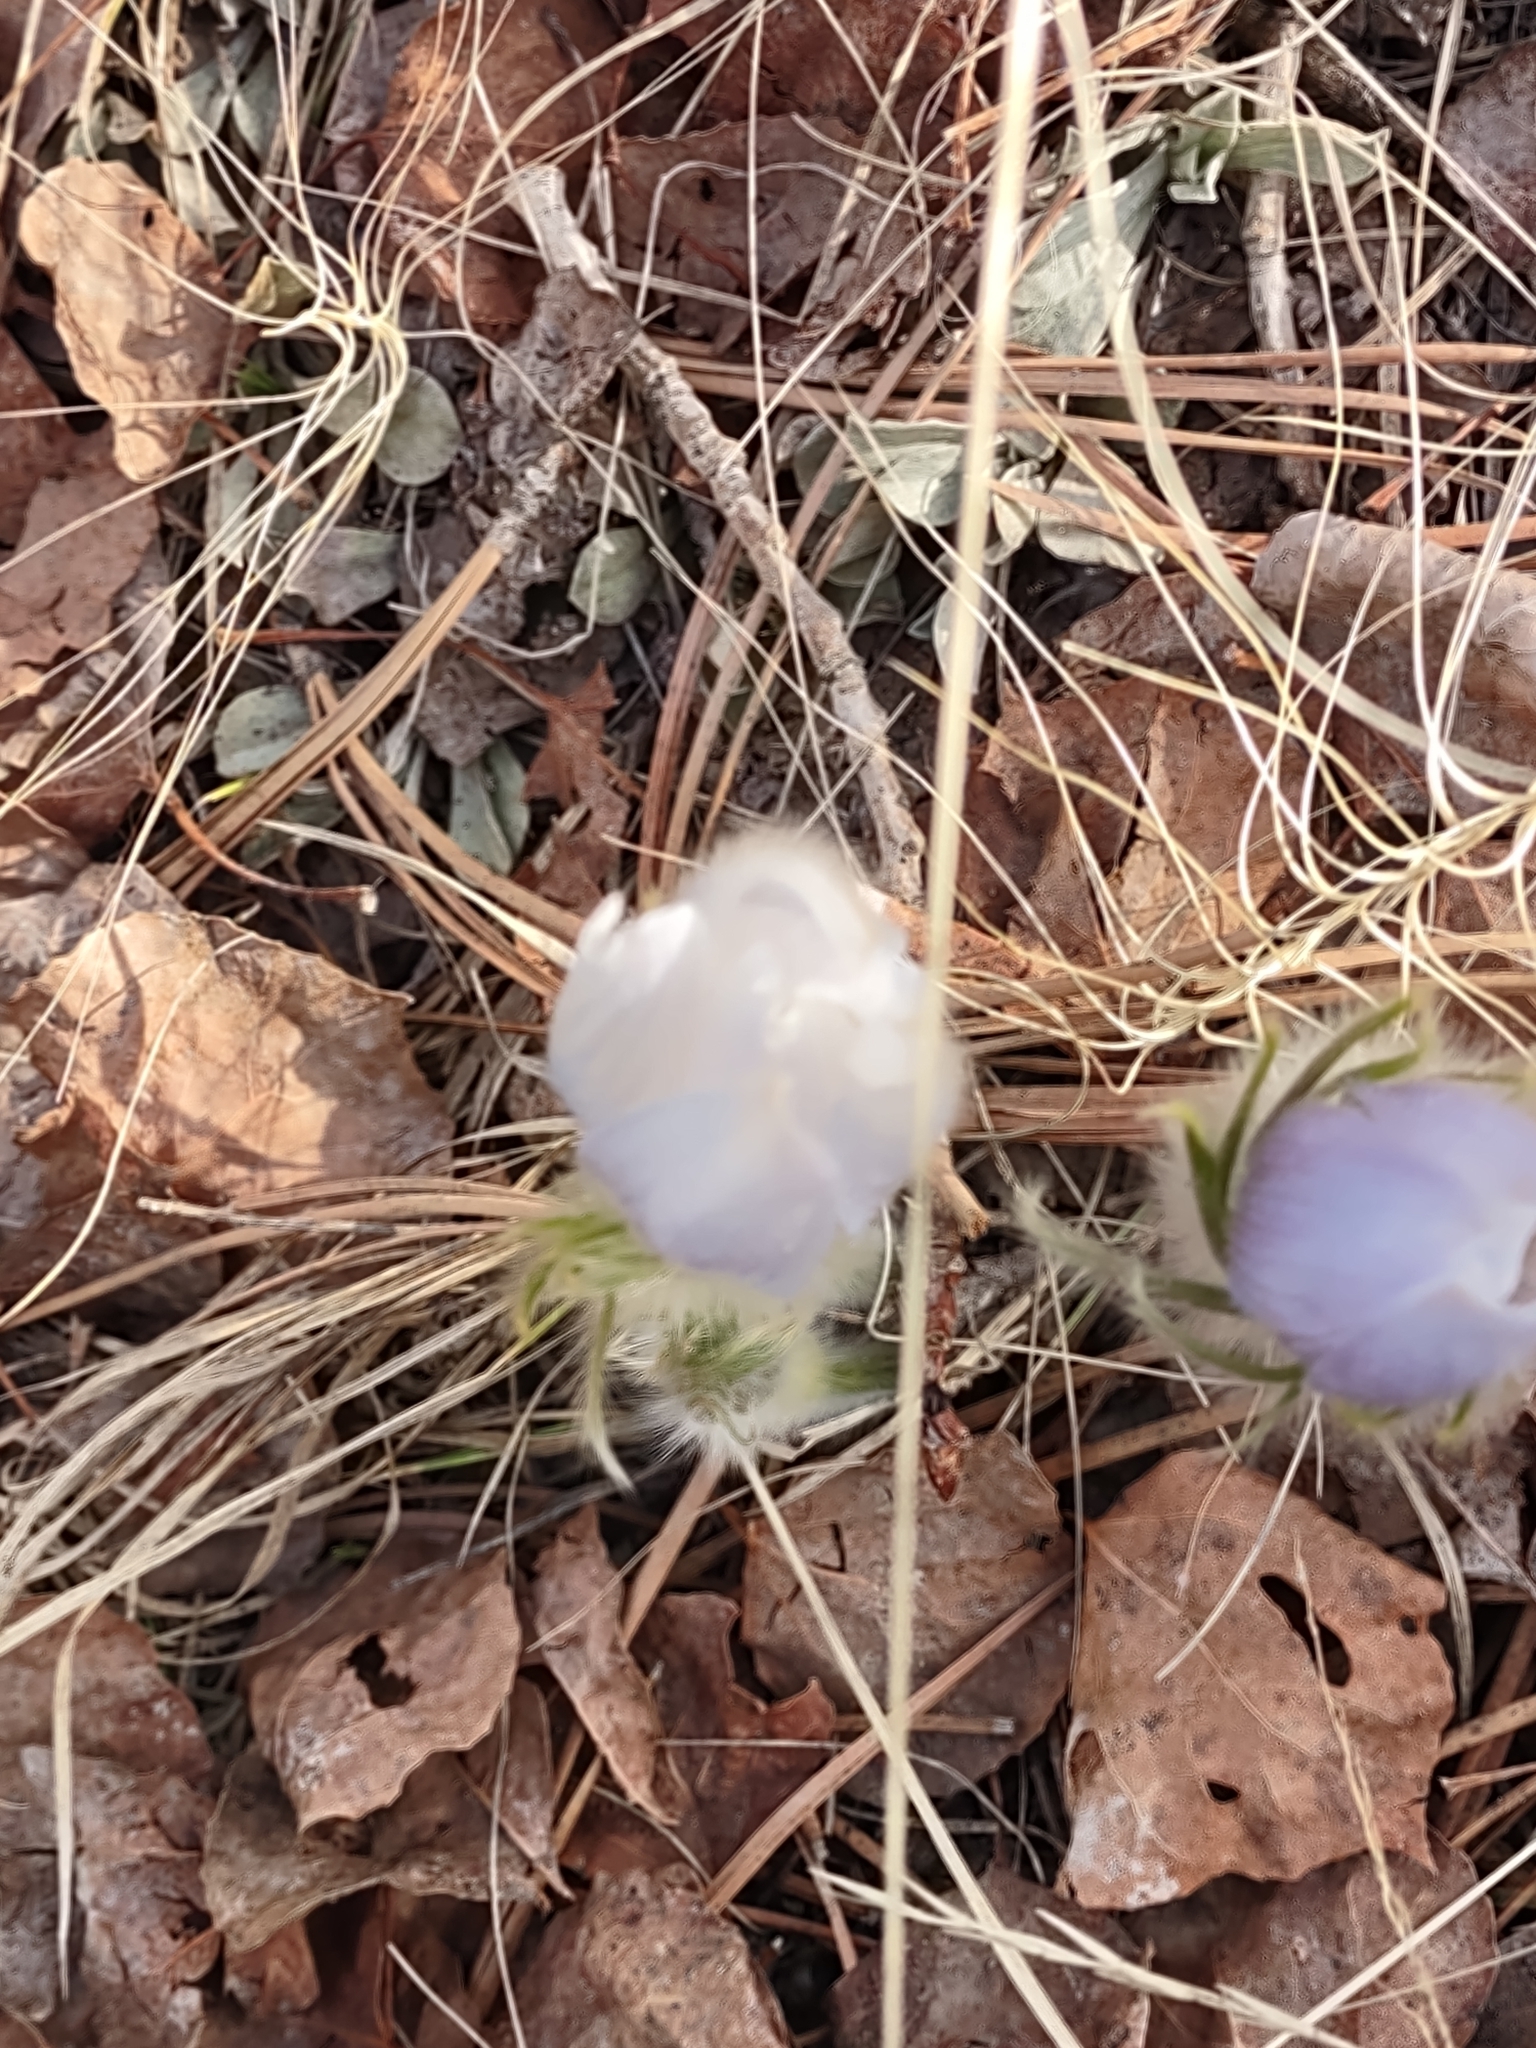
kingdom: Plantae
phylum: Tracheophyta
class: Magnoliopsida
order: Ranunculales
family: Ranunculaceae
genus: Pulsatilla
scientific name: Pulsatilla nuttalliana
